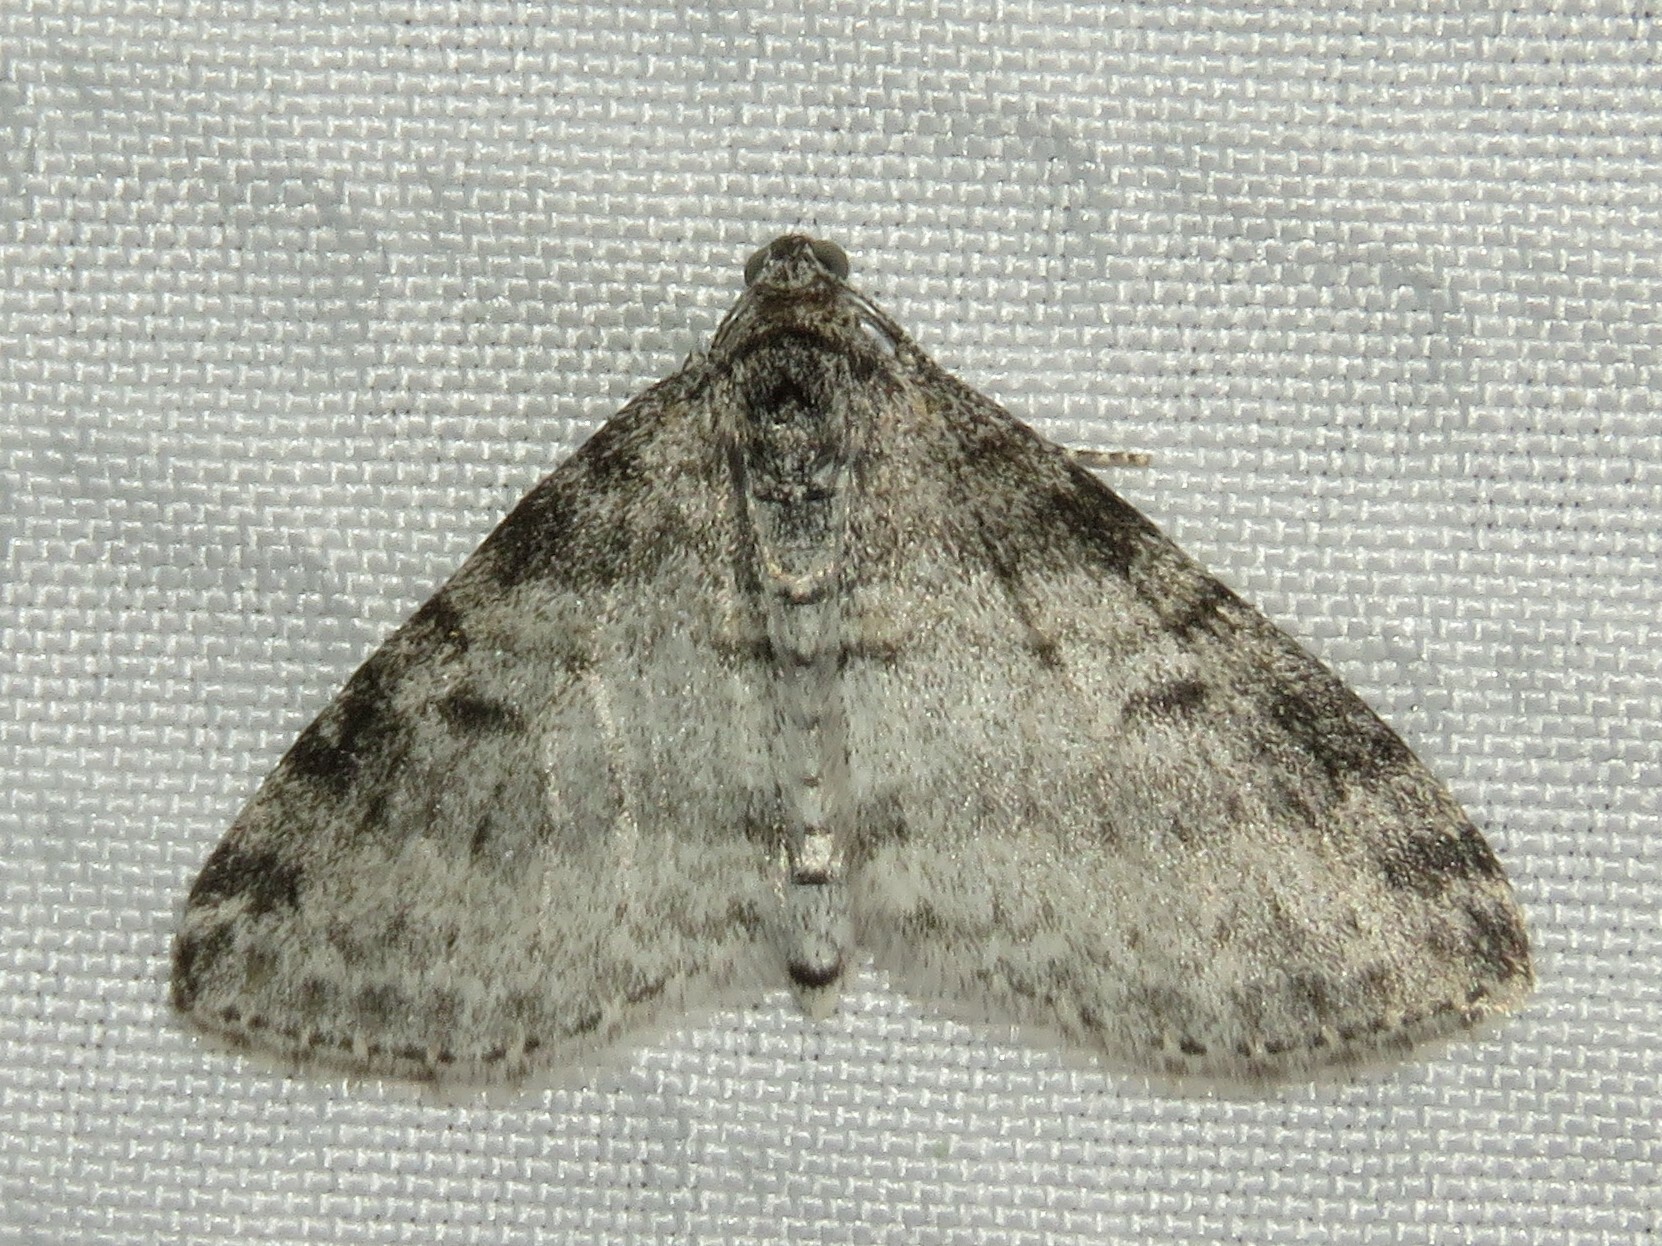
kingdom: Animalia
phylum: Arthropoda
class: Insecta
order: Lepidoptera
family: Geometridae
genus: Lobophora
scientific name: Lobophora nivigerata
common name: Powdered bigwing
